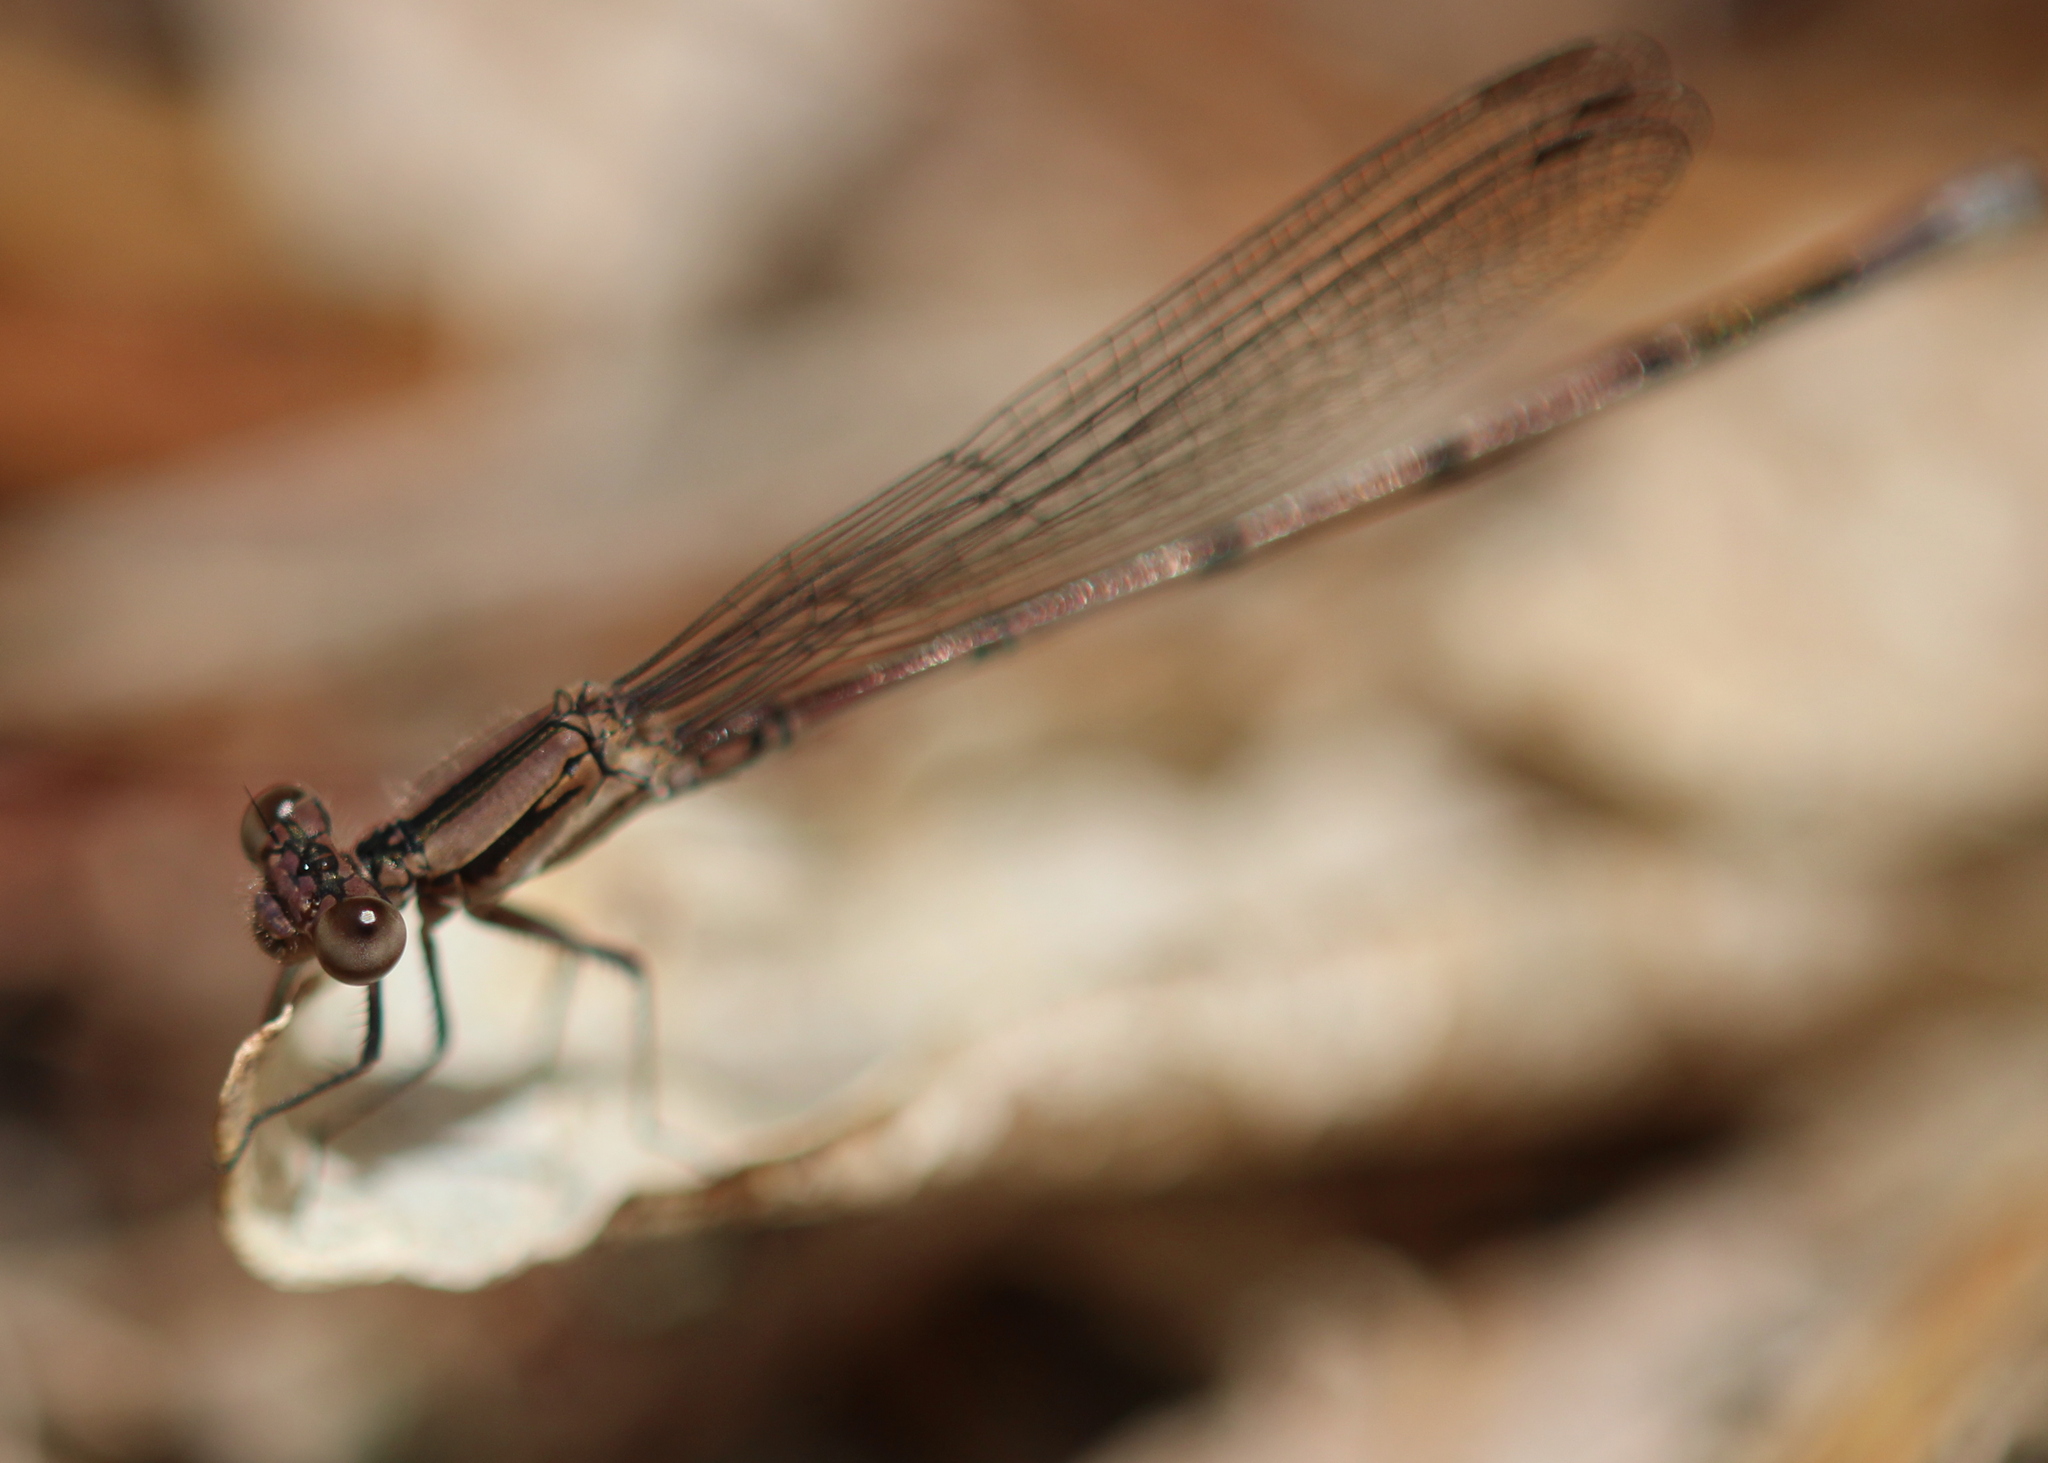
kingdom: Animalia
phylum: Arthropoda
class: Insecta
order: Odonata
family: Coenagrionidae
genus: Argia
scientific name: Argia fumipennis
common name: Variable dancer
